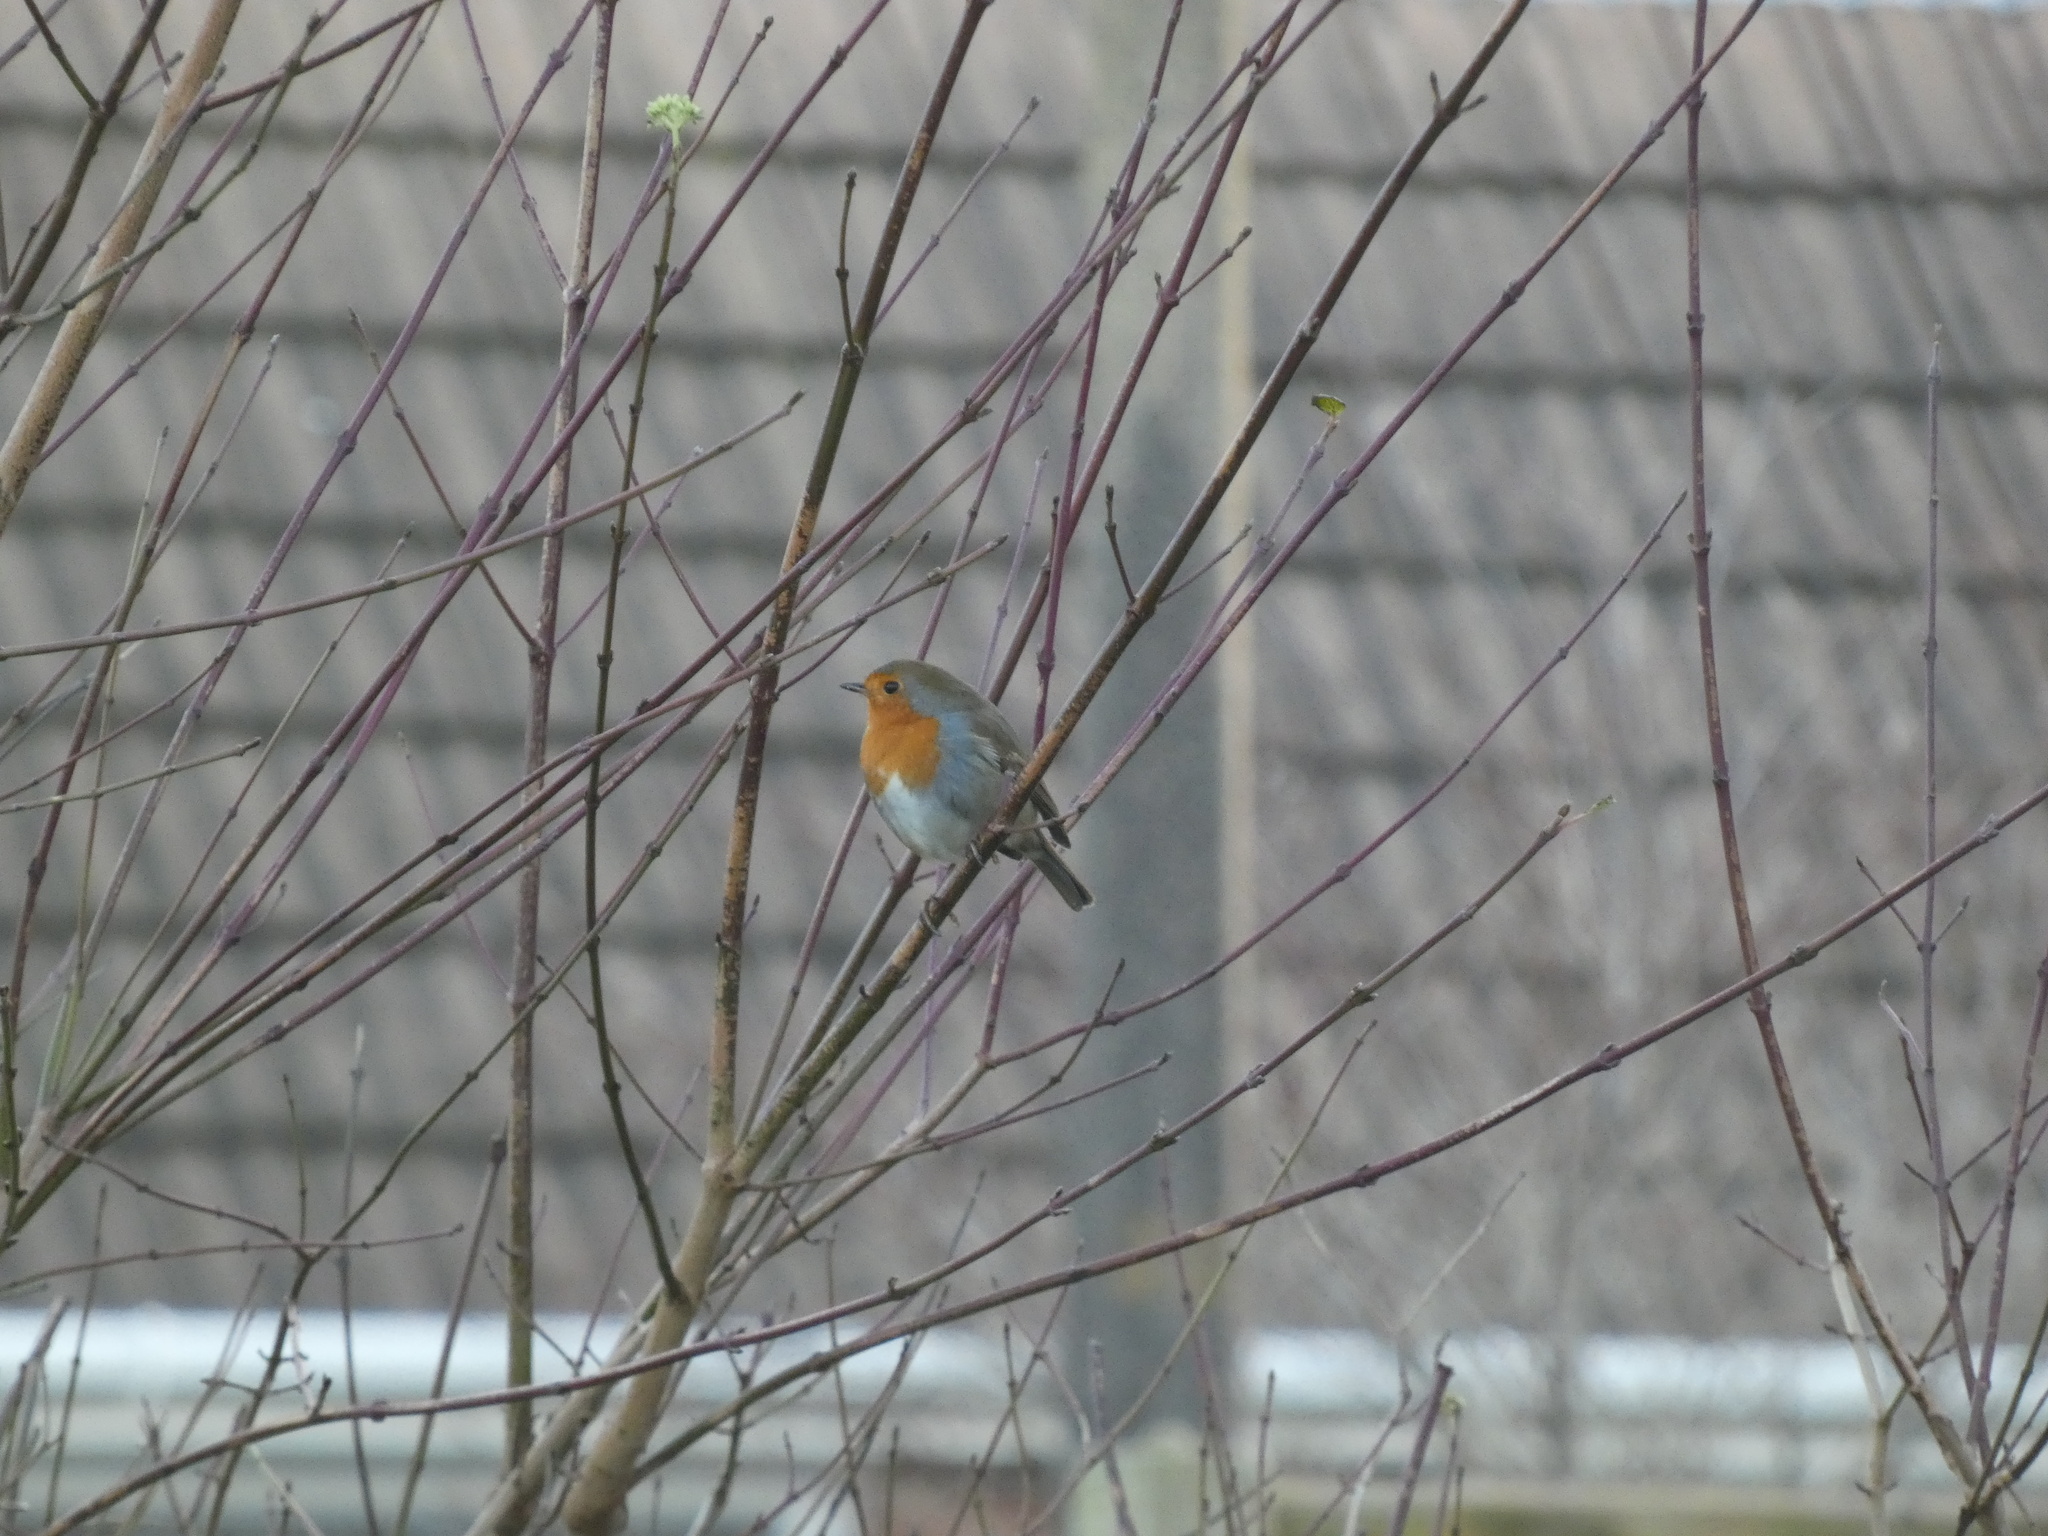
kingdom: Animalia
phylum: Chordata
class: Aves
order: Passeriformes
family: Muscicapidae
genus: Erithacus
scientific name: Erithacus rubecula
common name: European robin
